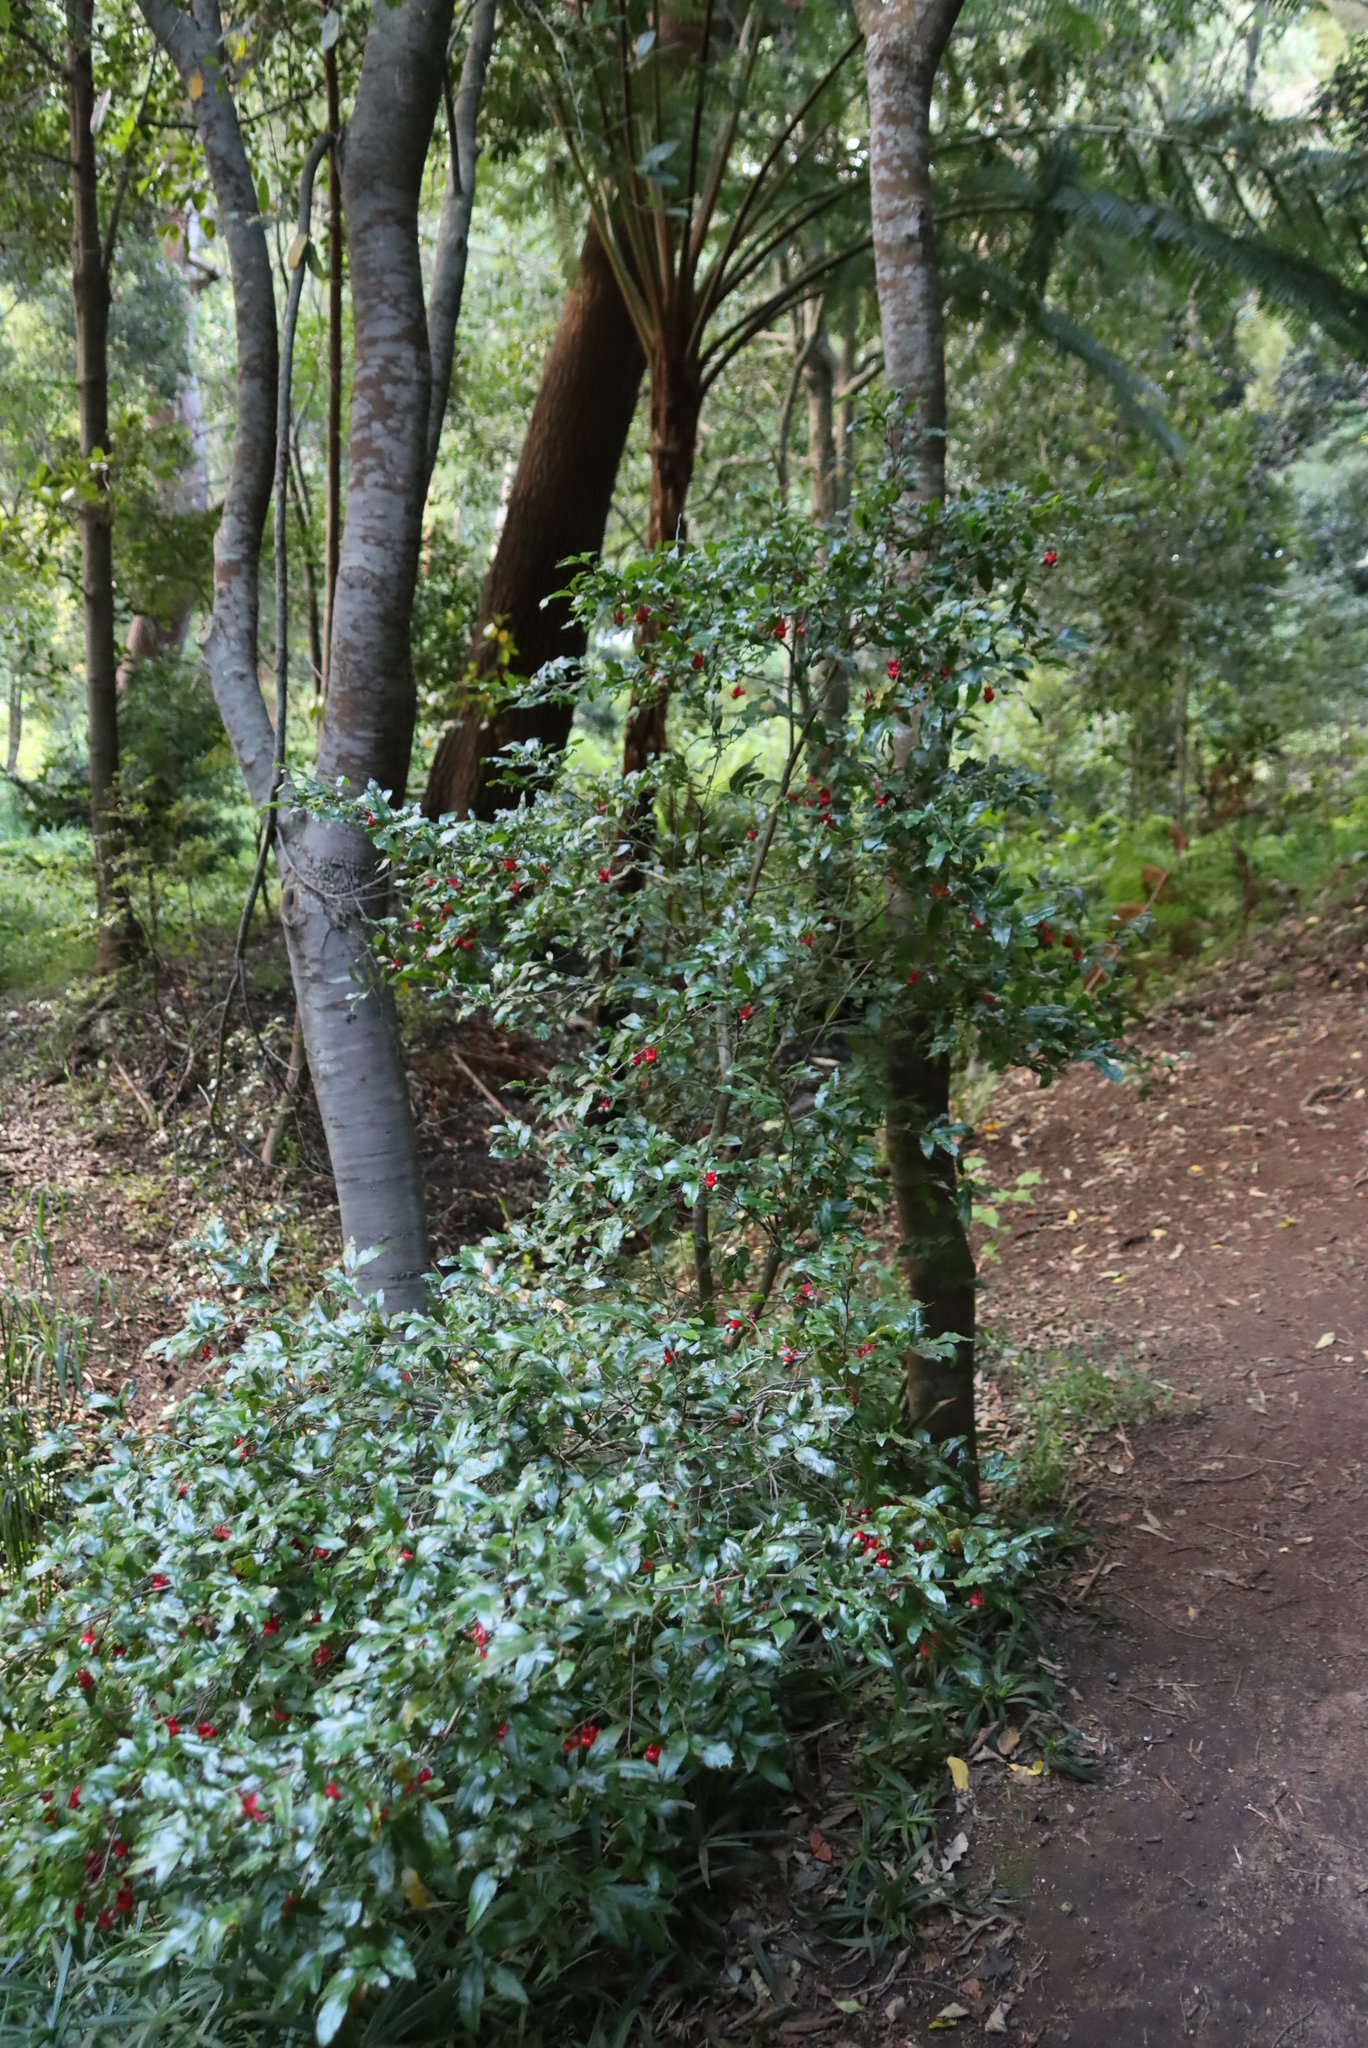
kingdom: Plantae
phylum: Tracheophyta
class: Magnoliopsida
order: Malpighiales
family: Ochnaceae
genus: Ochna
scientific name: Ochna serrulata
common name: Mickey mouse plant
